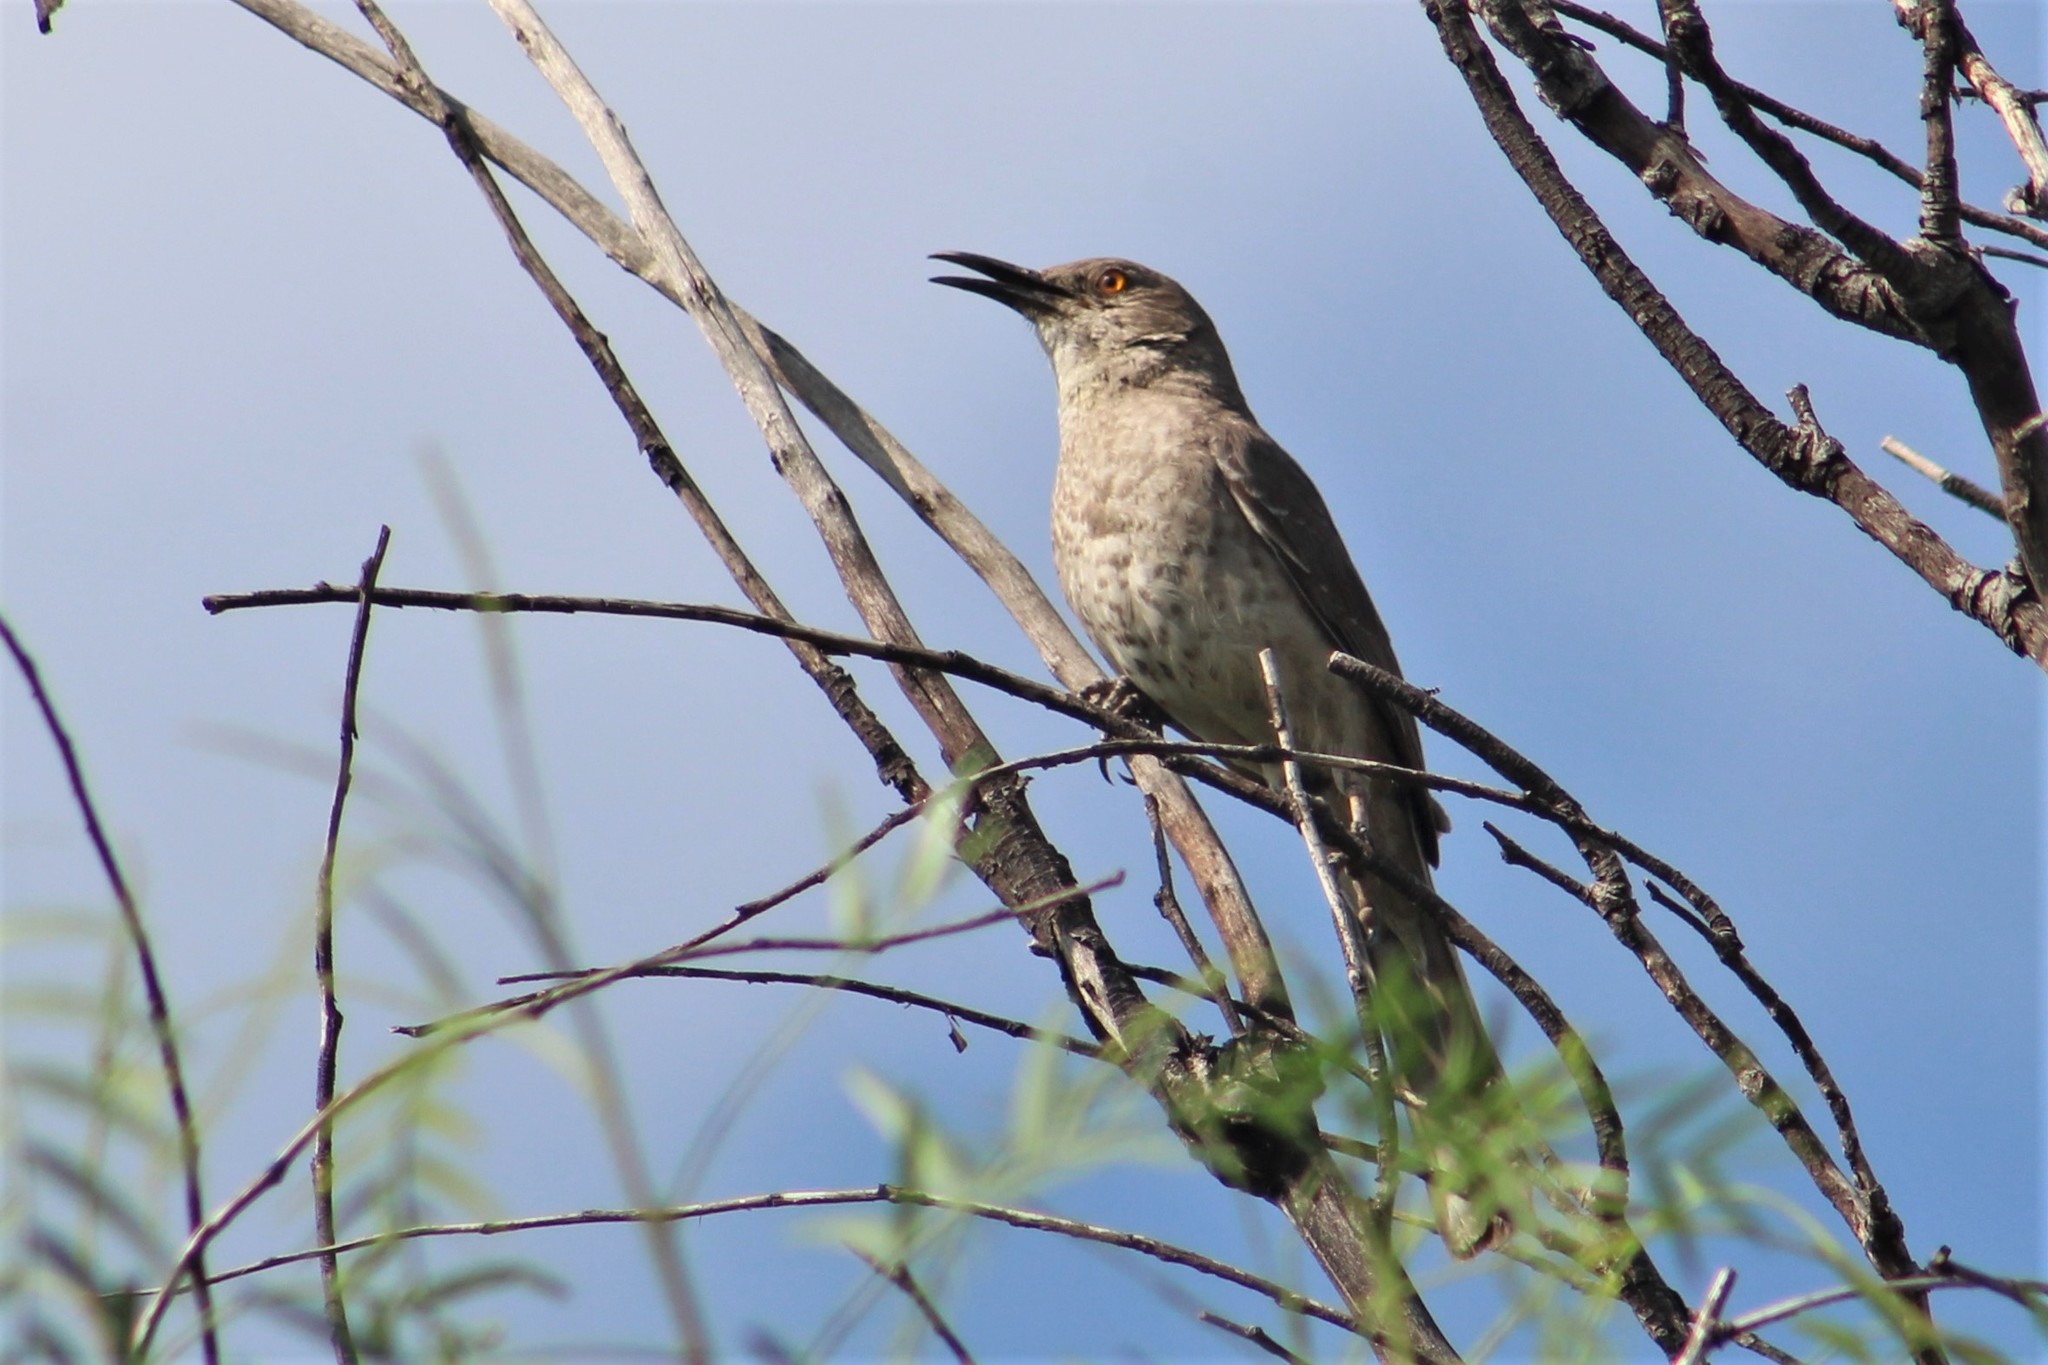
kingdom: Animalia
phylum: Chordata
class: Aves
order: Passeriformes
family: Mimidae
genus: Toxostoma
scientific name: Toxostoma curvirostre
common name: Curve-billed thrasher
